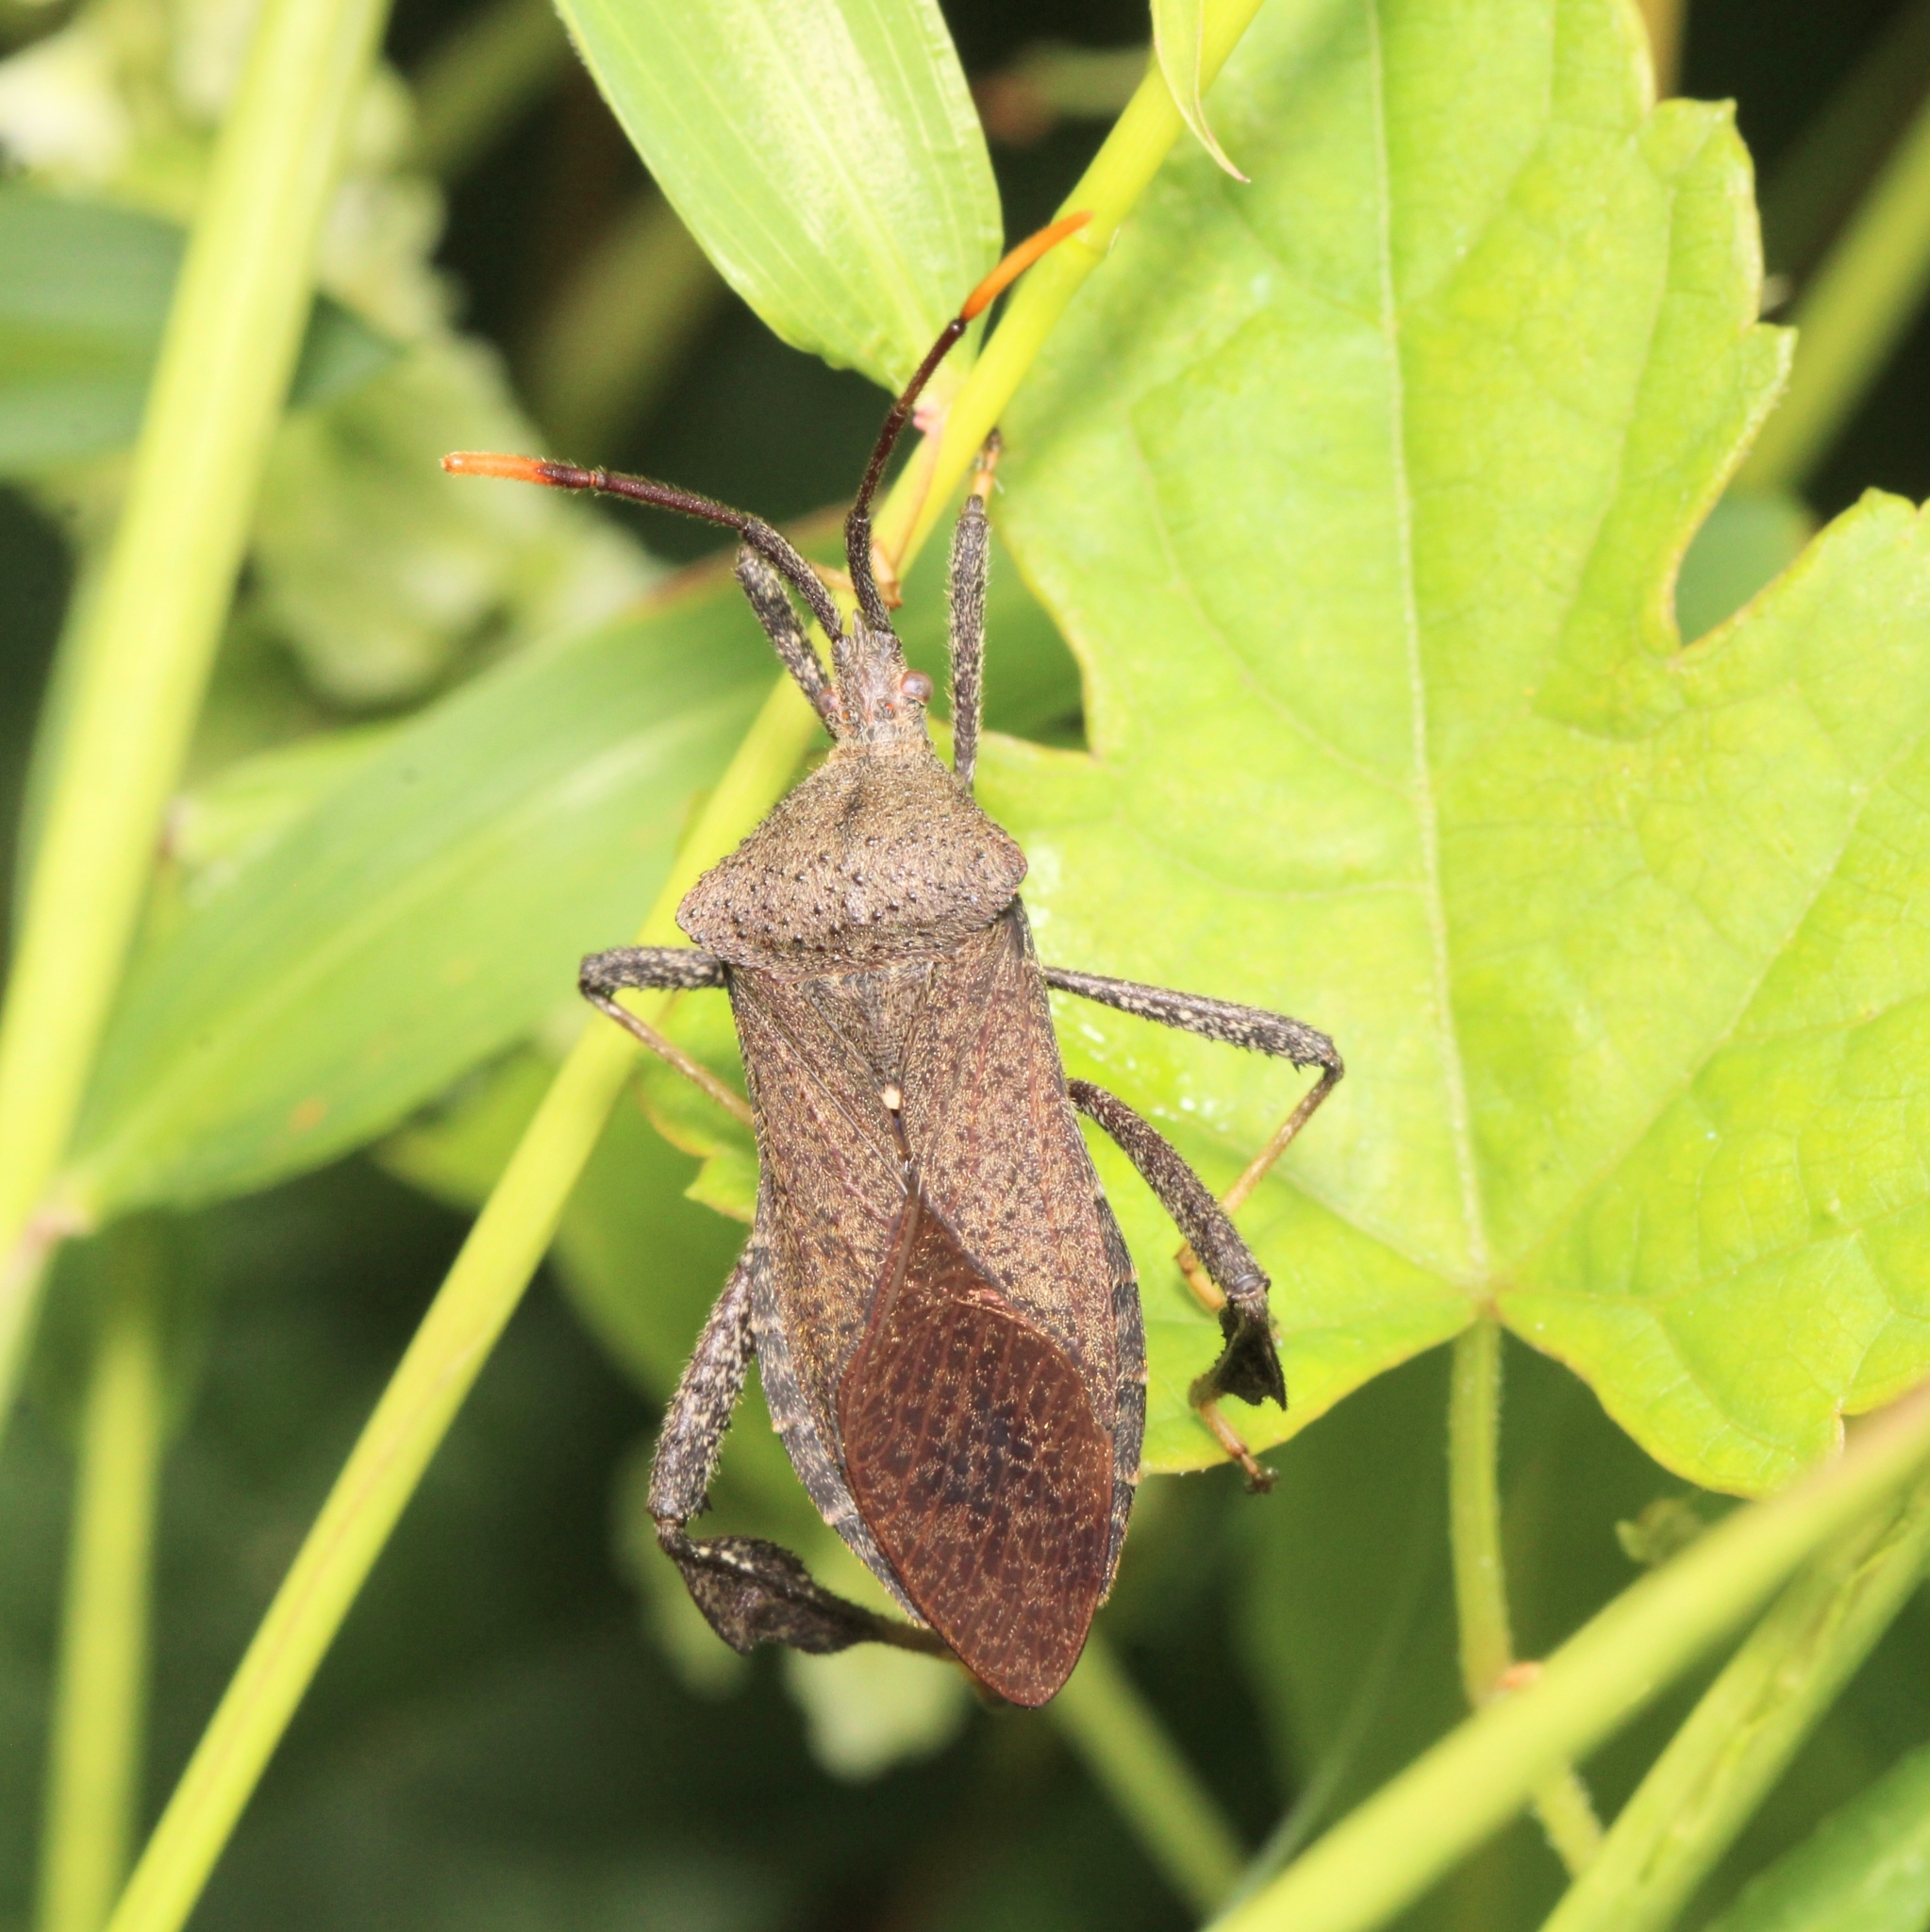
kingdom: Animalia
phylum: Arthropoda
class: Insecta
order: Hemiptera
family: Coreidae
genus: Acanthocephala
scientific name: Acanthocephala terminalis
